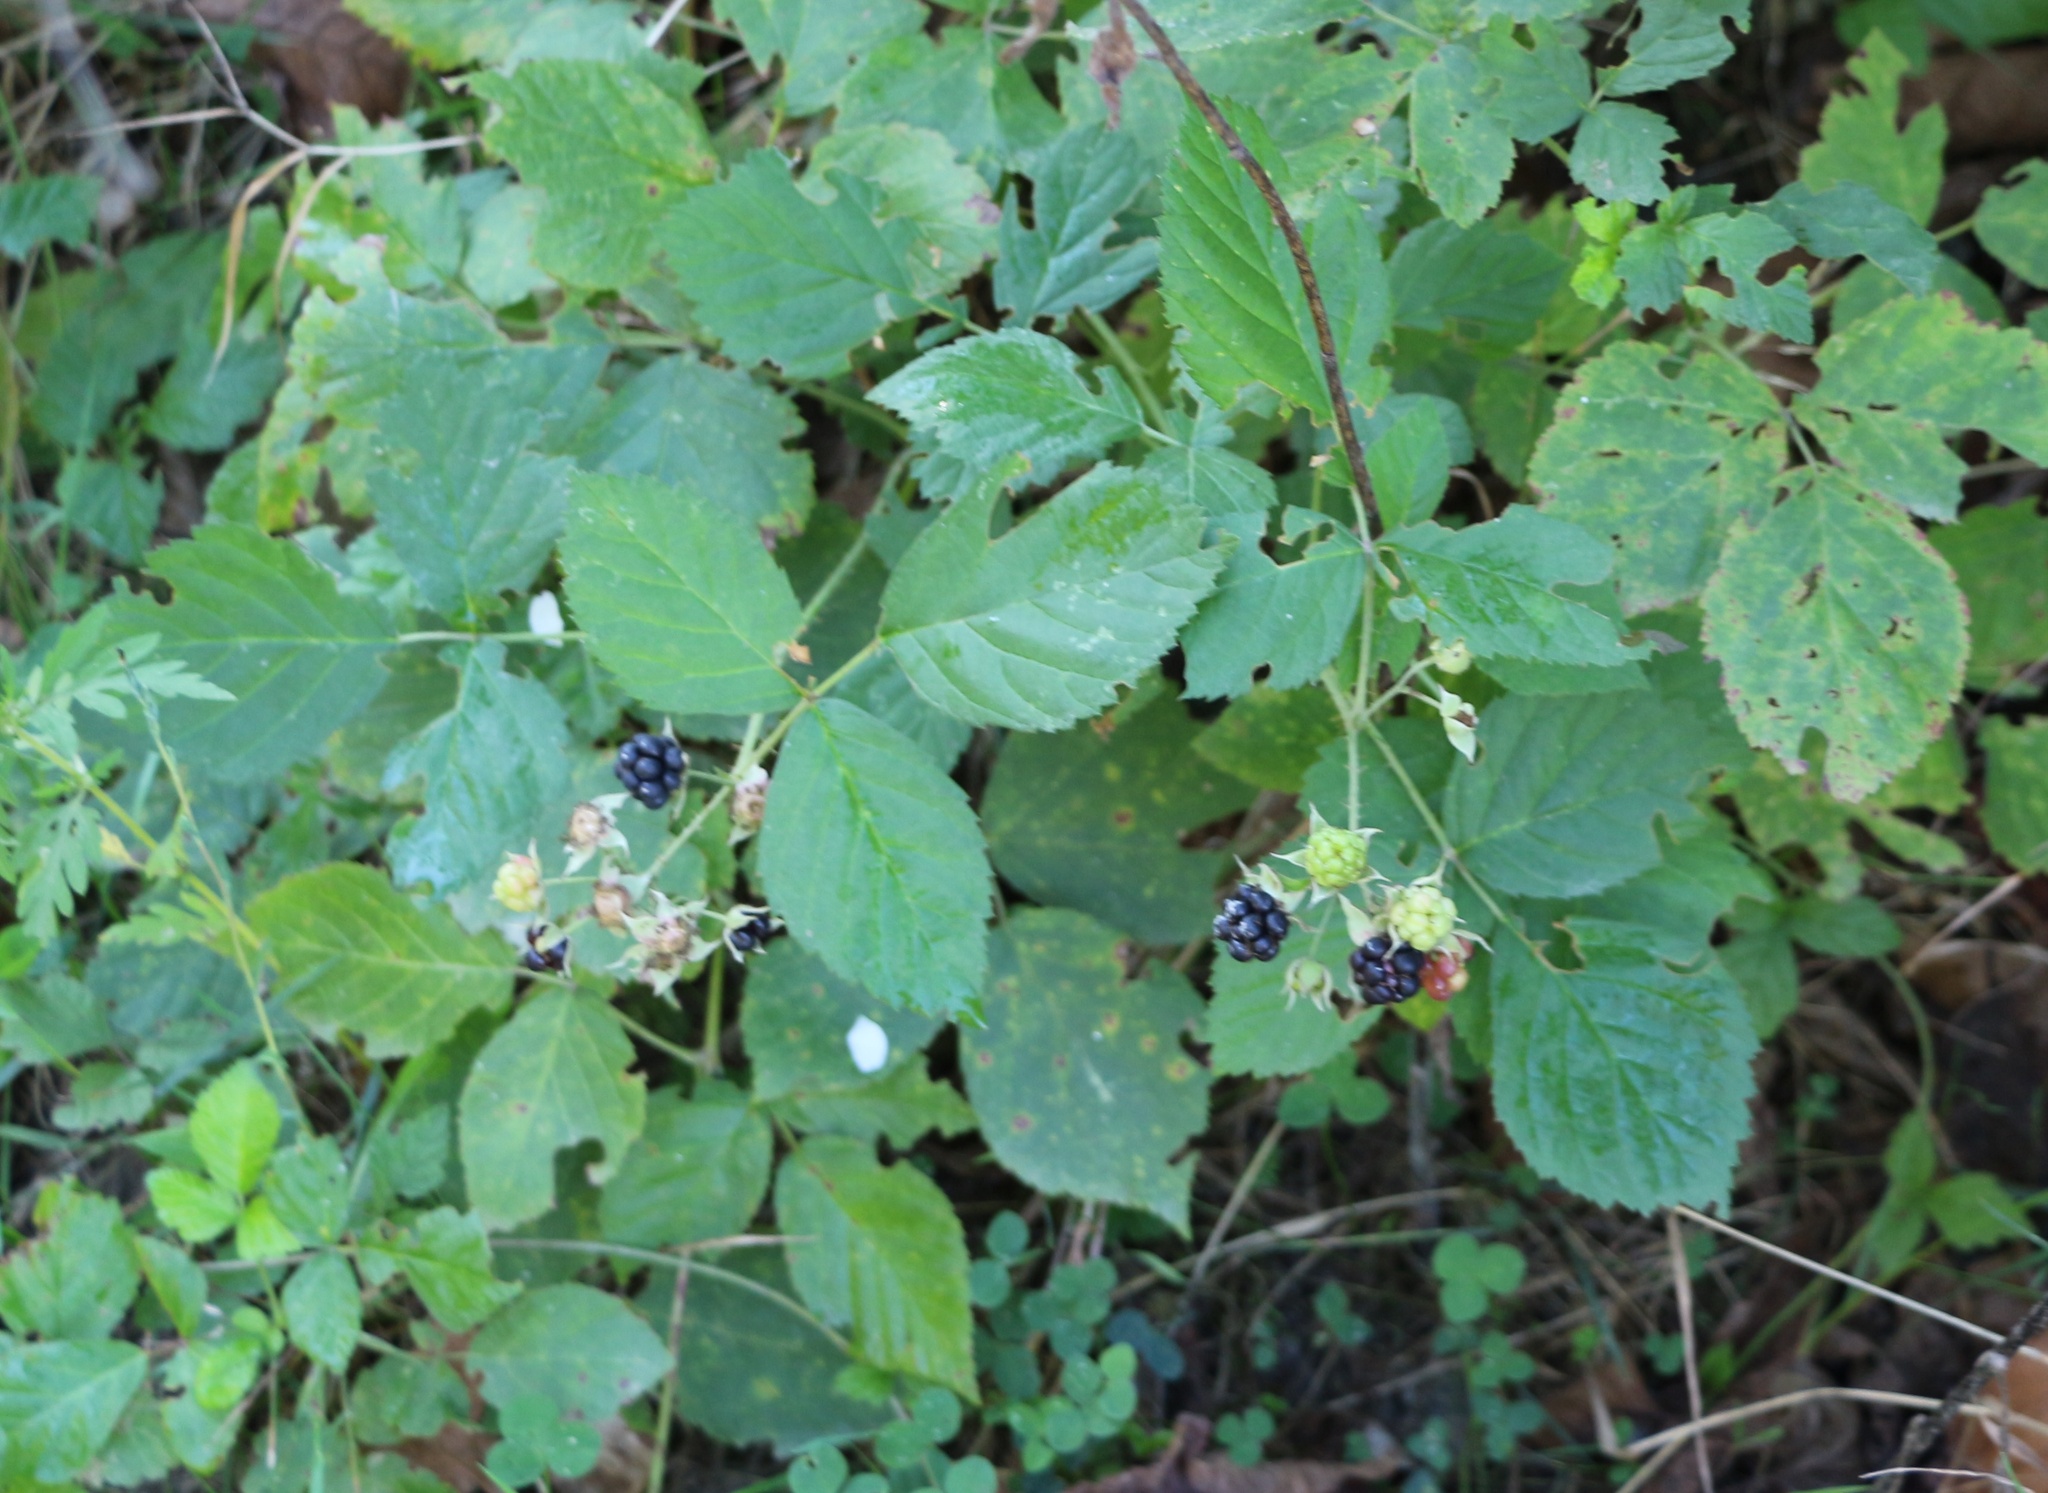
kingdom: Plantae
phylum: Tracheophyta
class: Magnoliopsida
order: Rosales
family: Rosaceae
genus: Rubus
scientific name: Rubus caesius
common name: Dewberry
